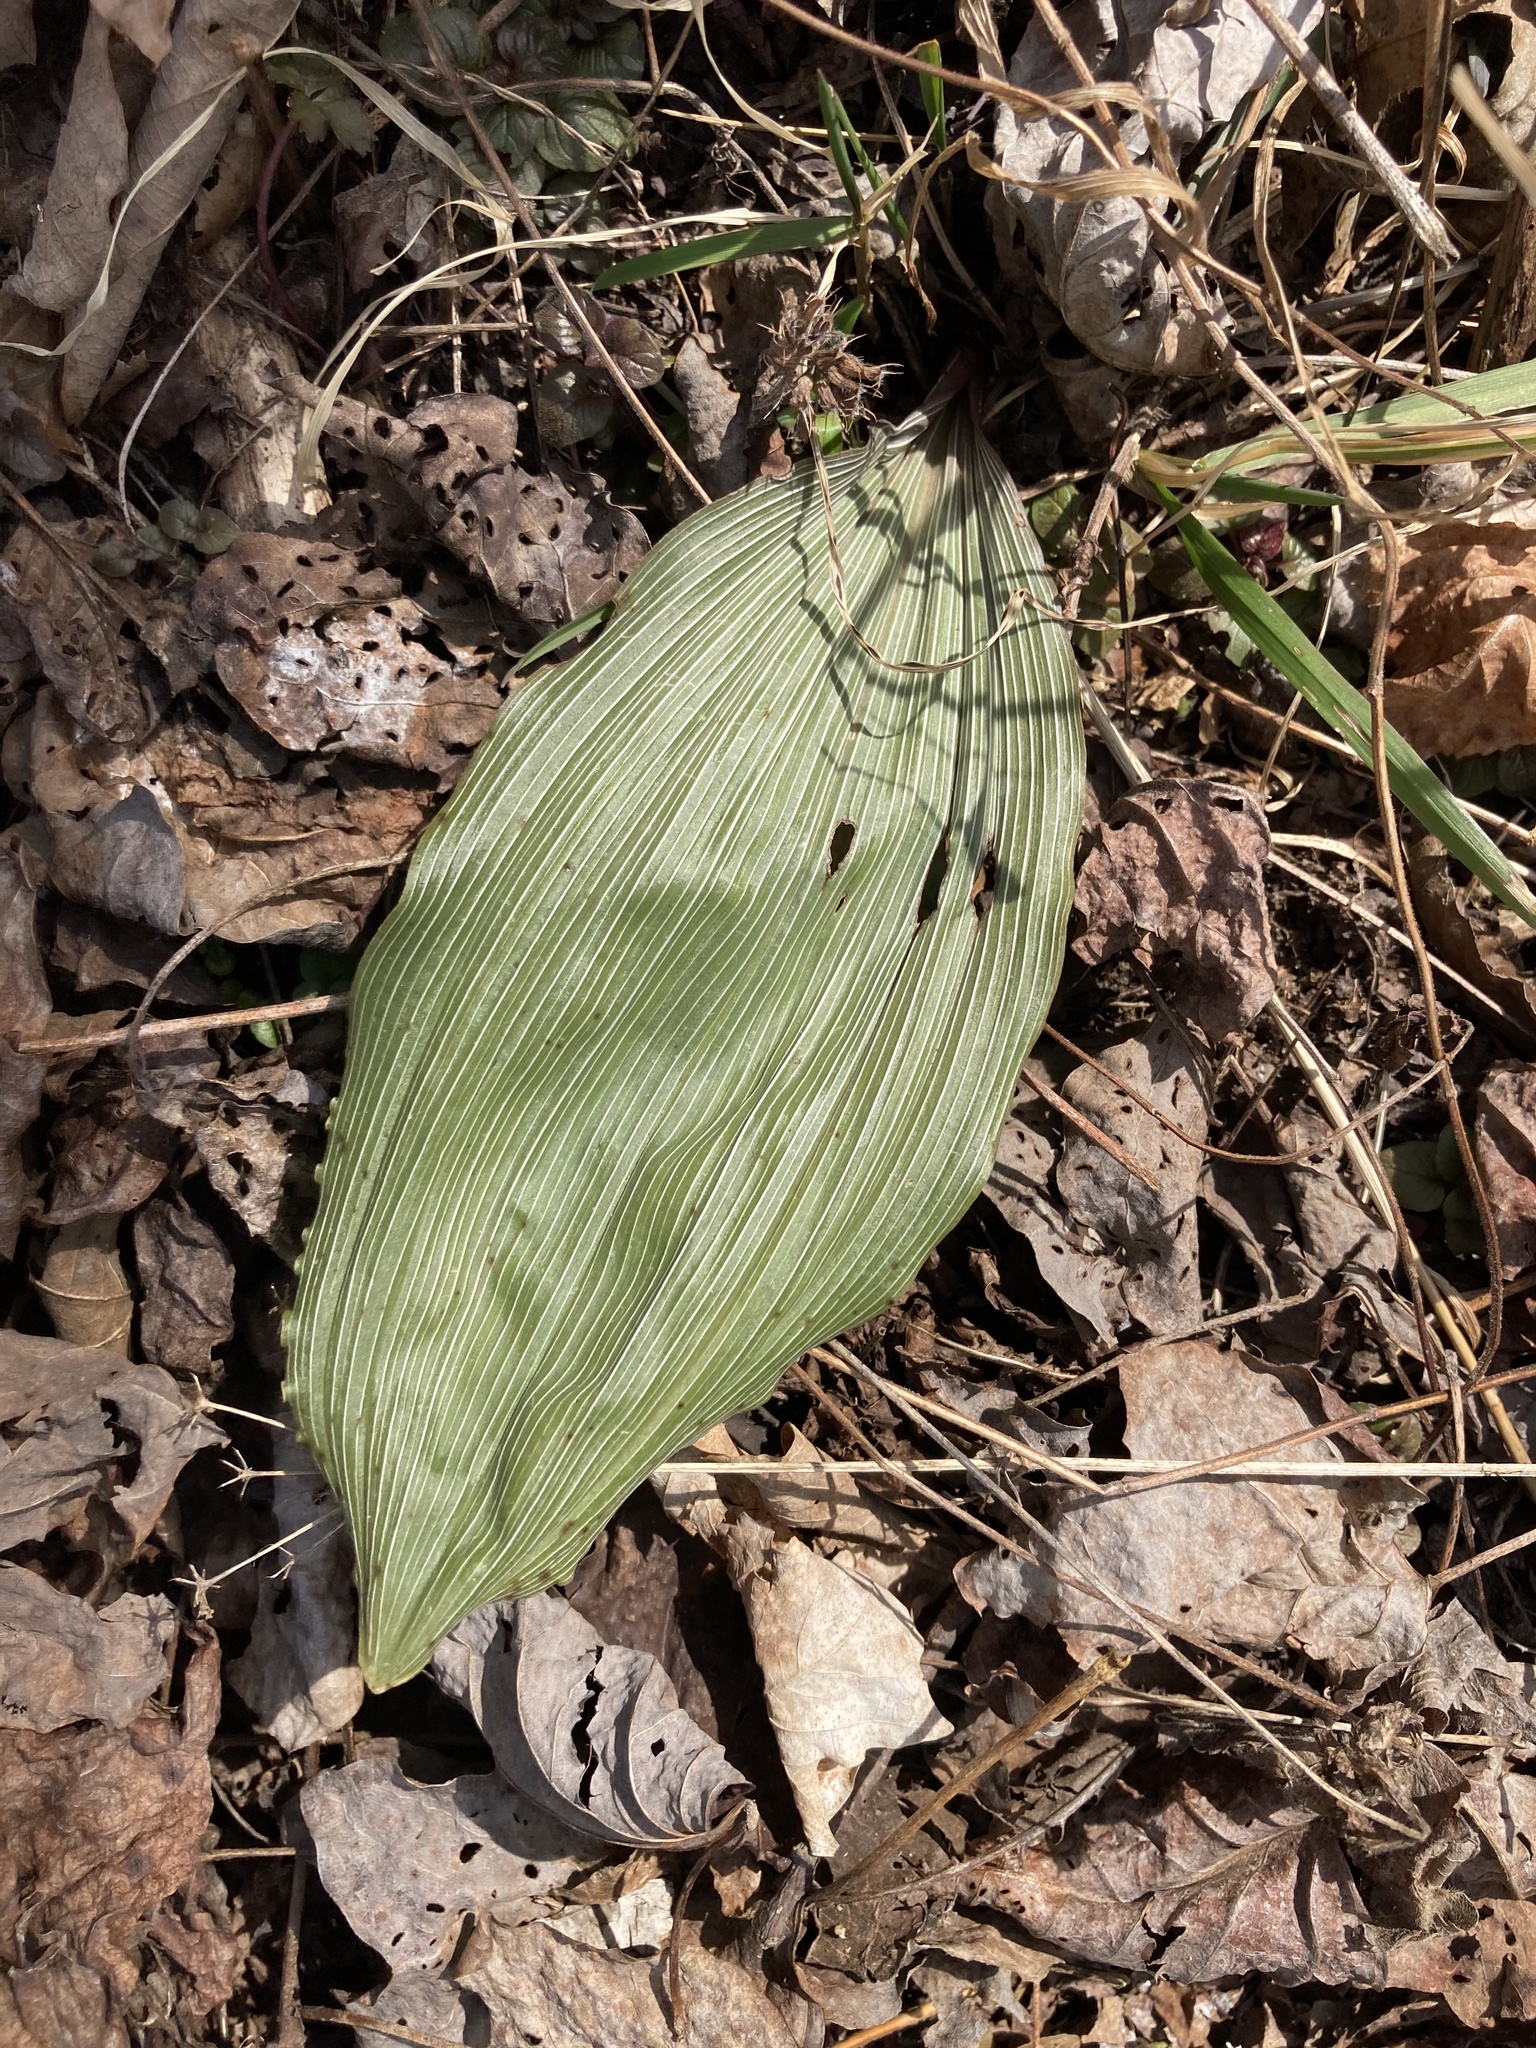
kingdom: Plantae
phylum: Tracheophyta
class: Liliopsida
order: Asparagales
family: Orchidaceae
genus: Aplectrum
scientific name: Aplectrum hyemale
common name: Adam-and-eve
